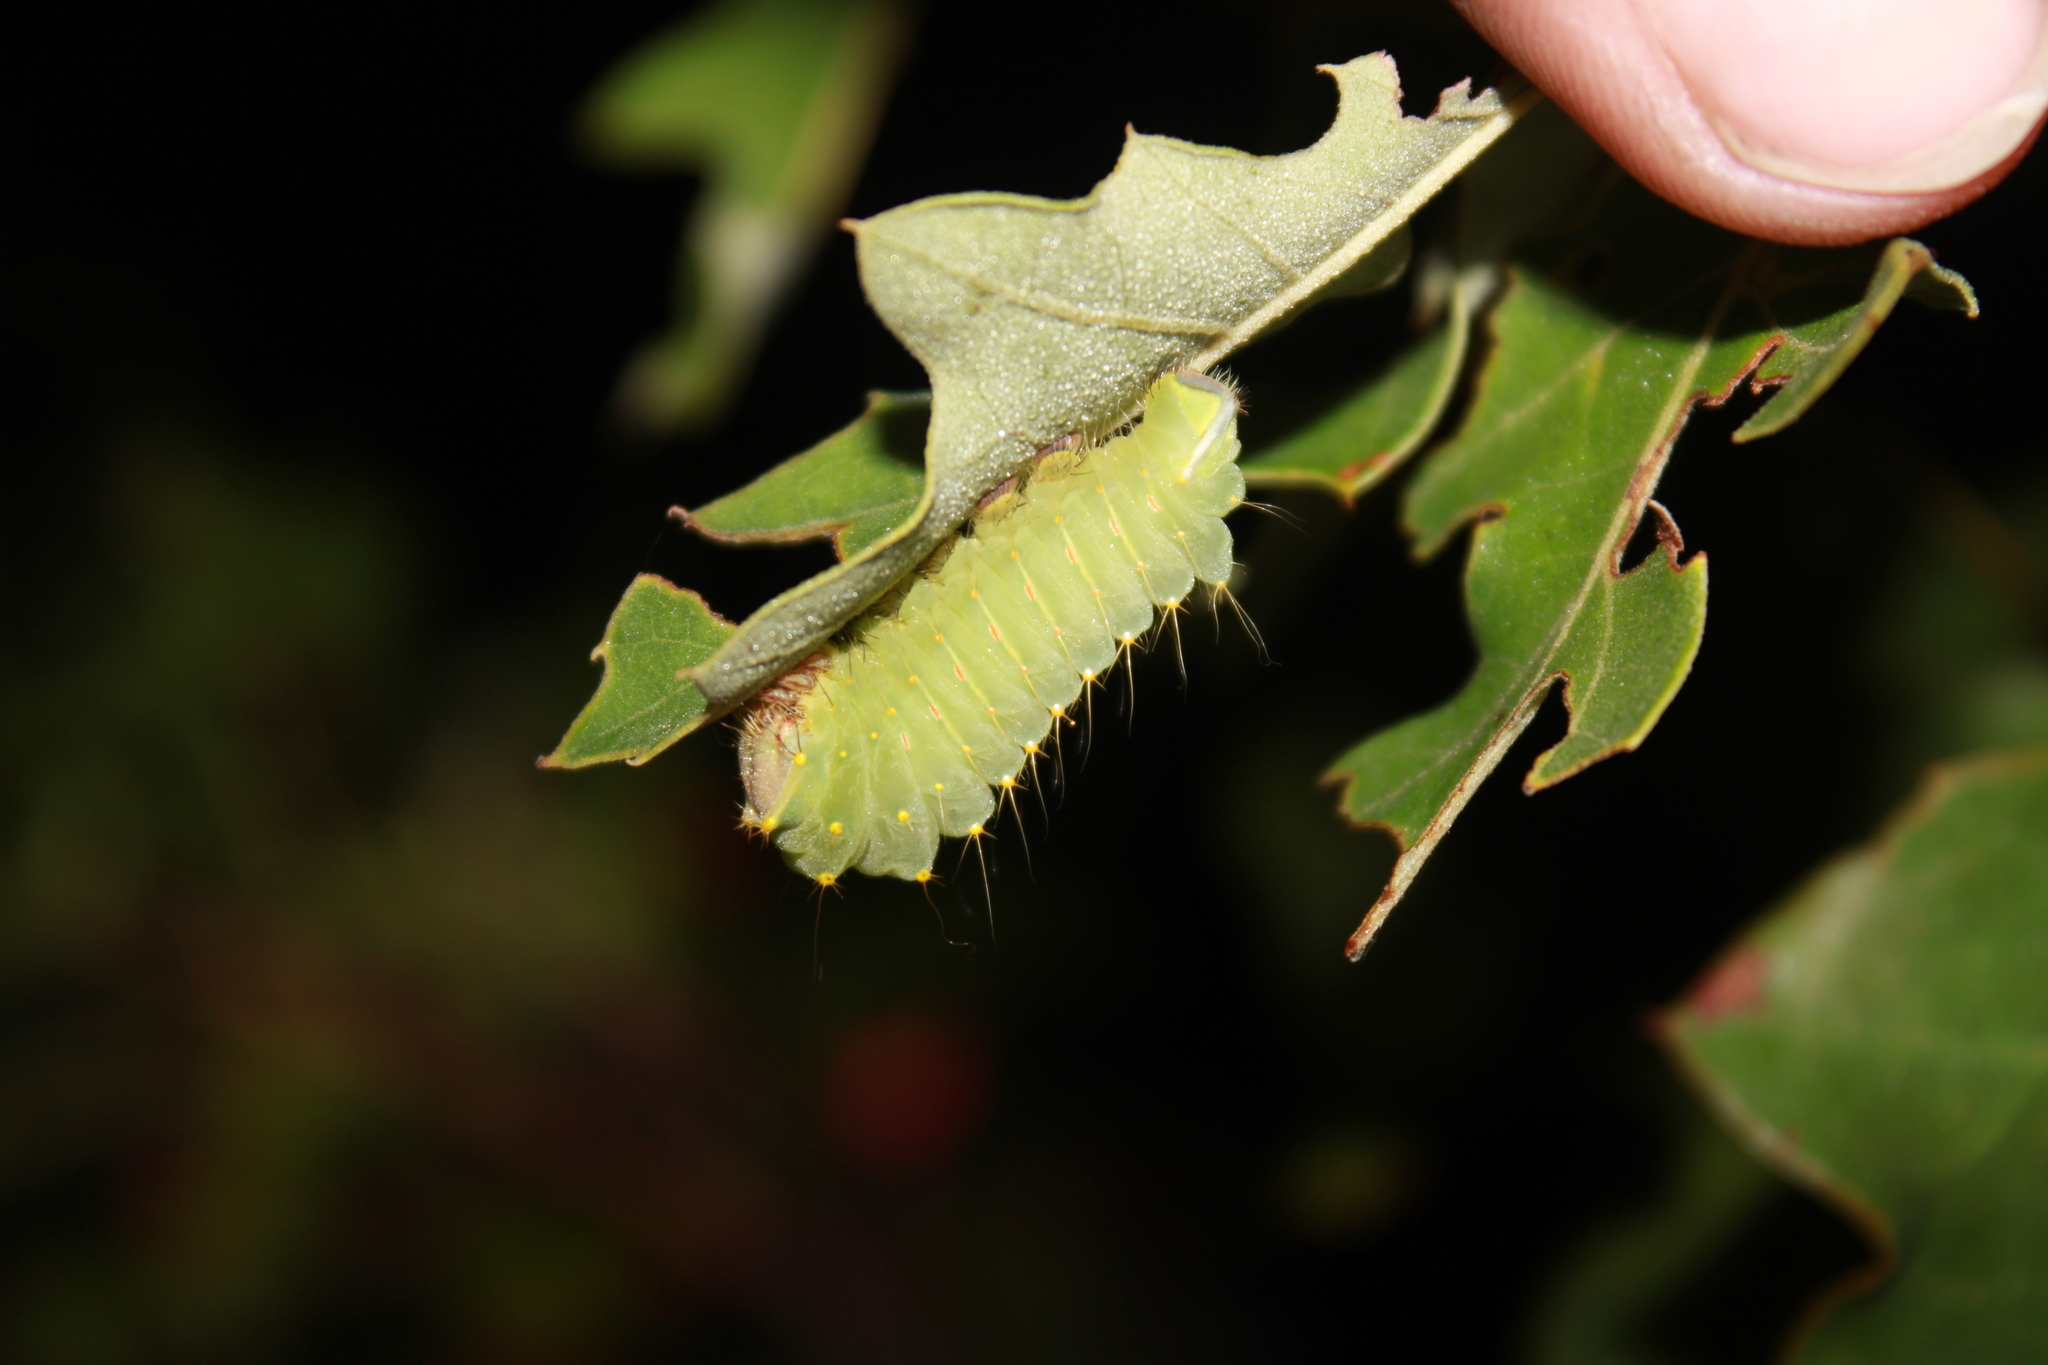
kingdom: Animalia
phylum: Arthropoda
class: Insecta
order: Lepidoptera
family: Saturniidae
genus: Antheraea
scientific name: Antheraea polyphemus
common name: Polyphemus moth
